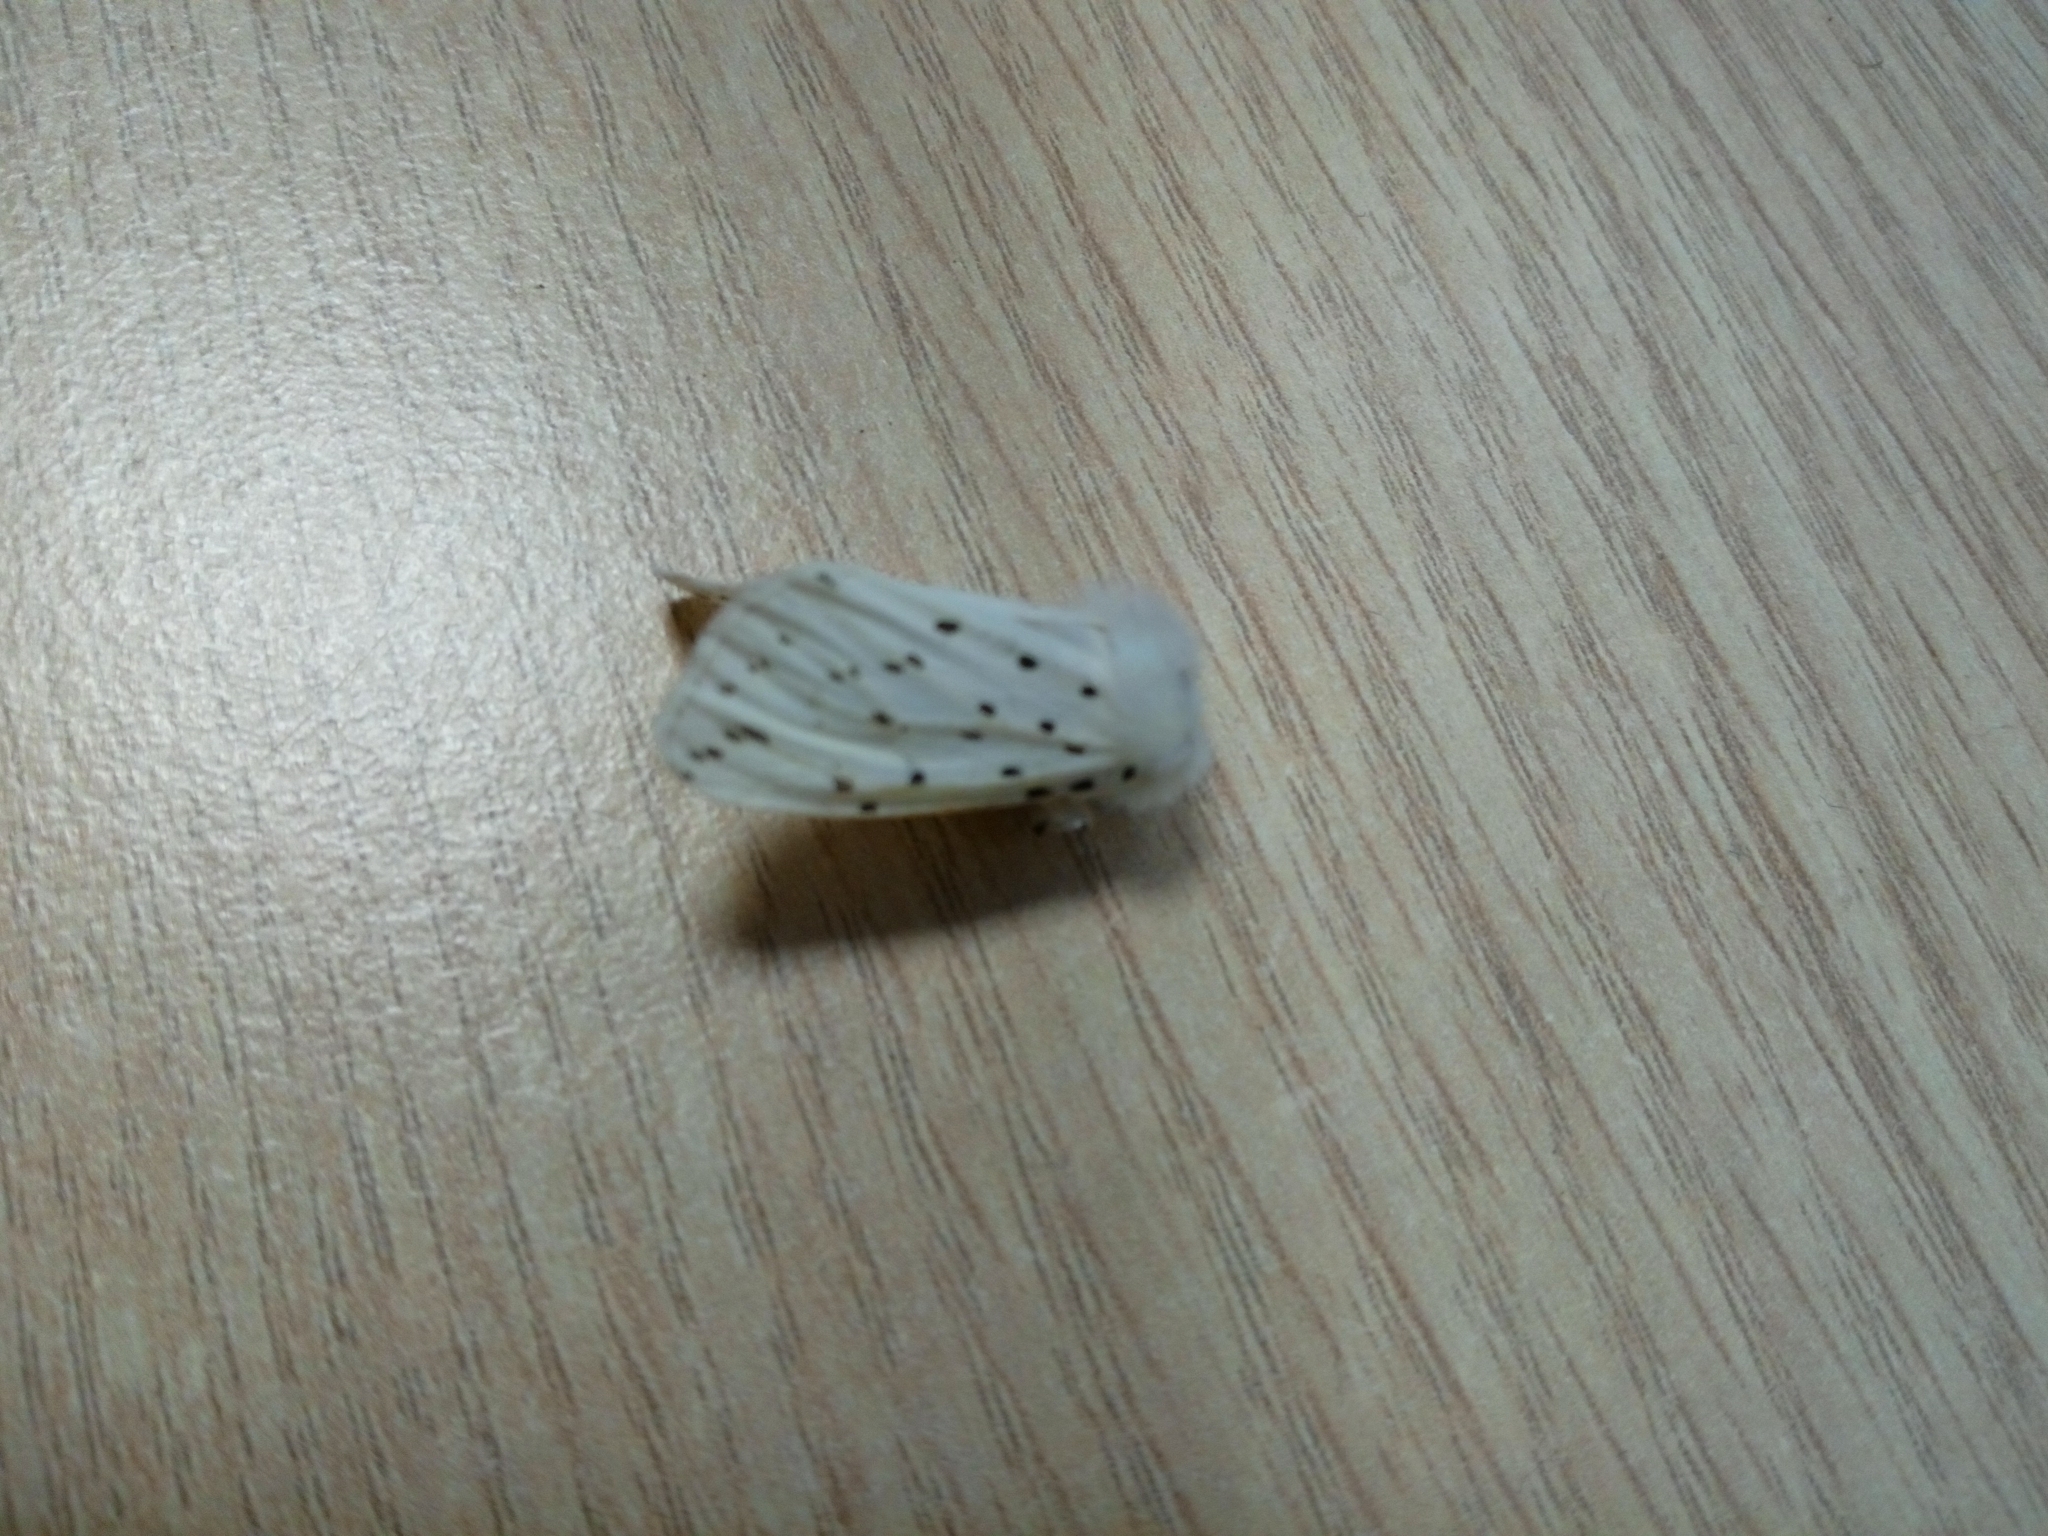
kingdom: Animalia
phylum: Arthropoda
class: Insecta
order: Lepidoptera
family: Erebidae
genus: Spilosoma
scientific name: Spilosoma lubricipeda
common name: White ermine
